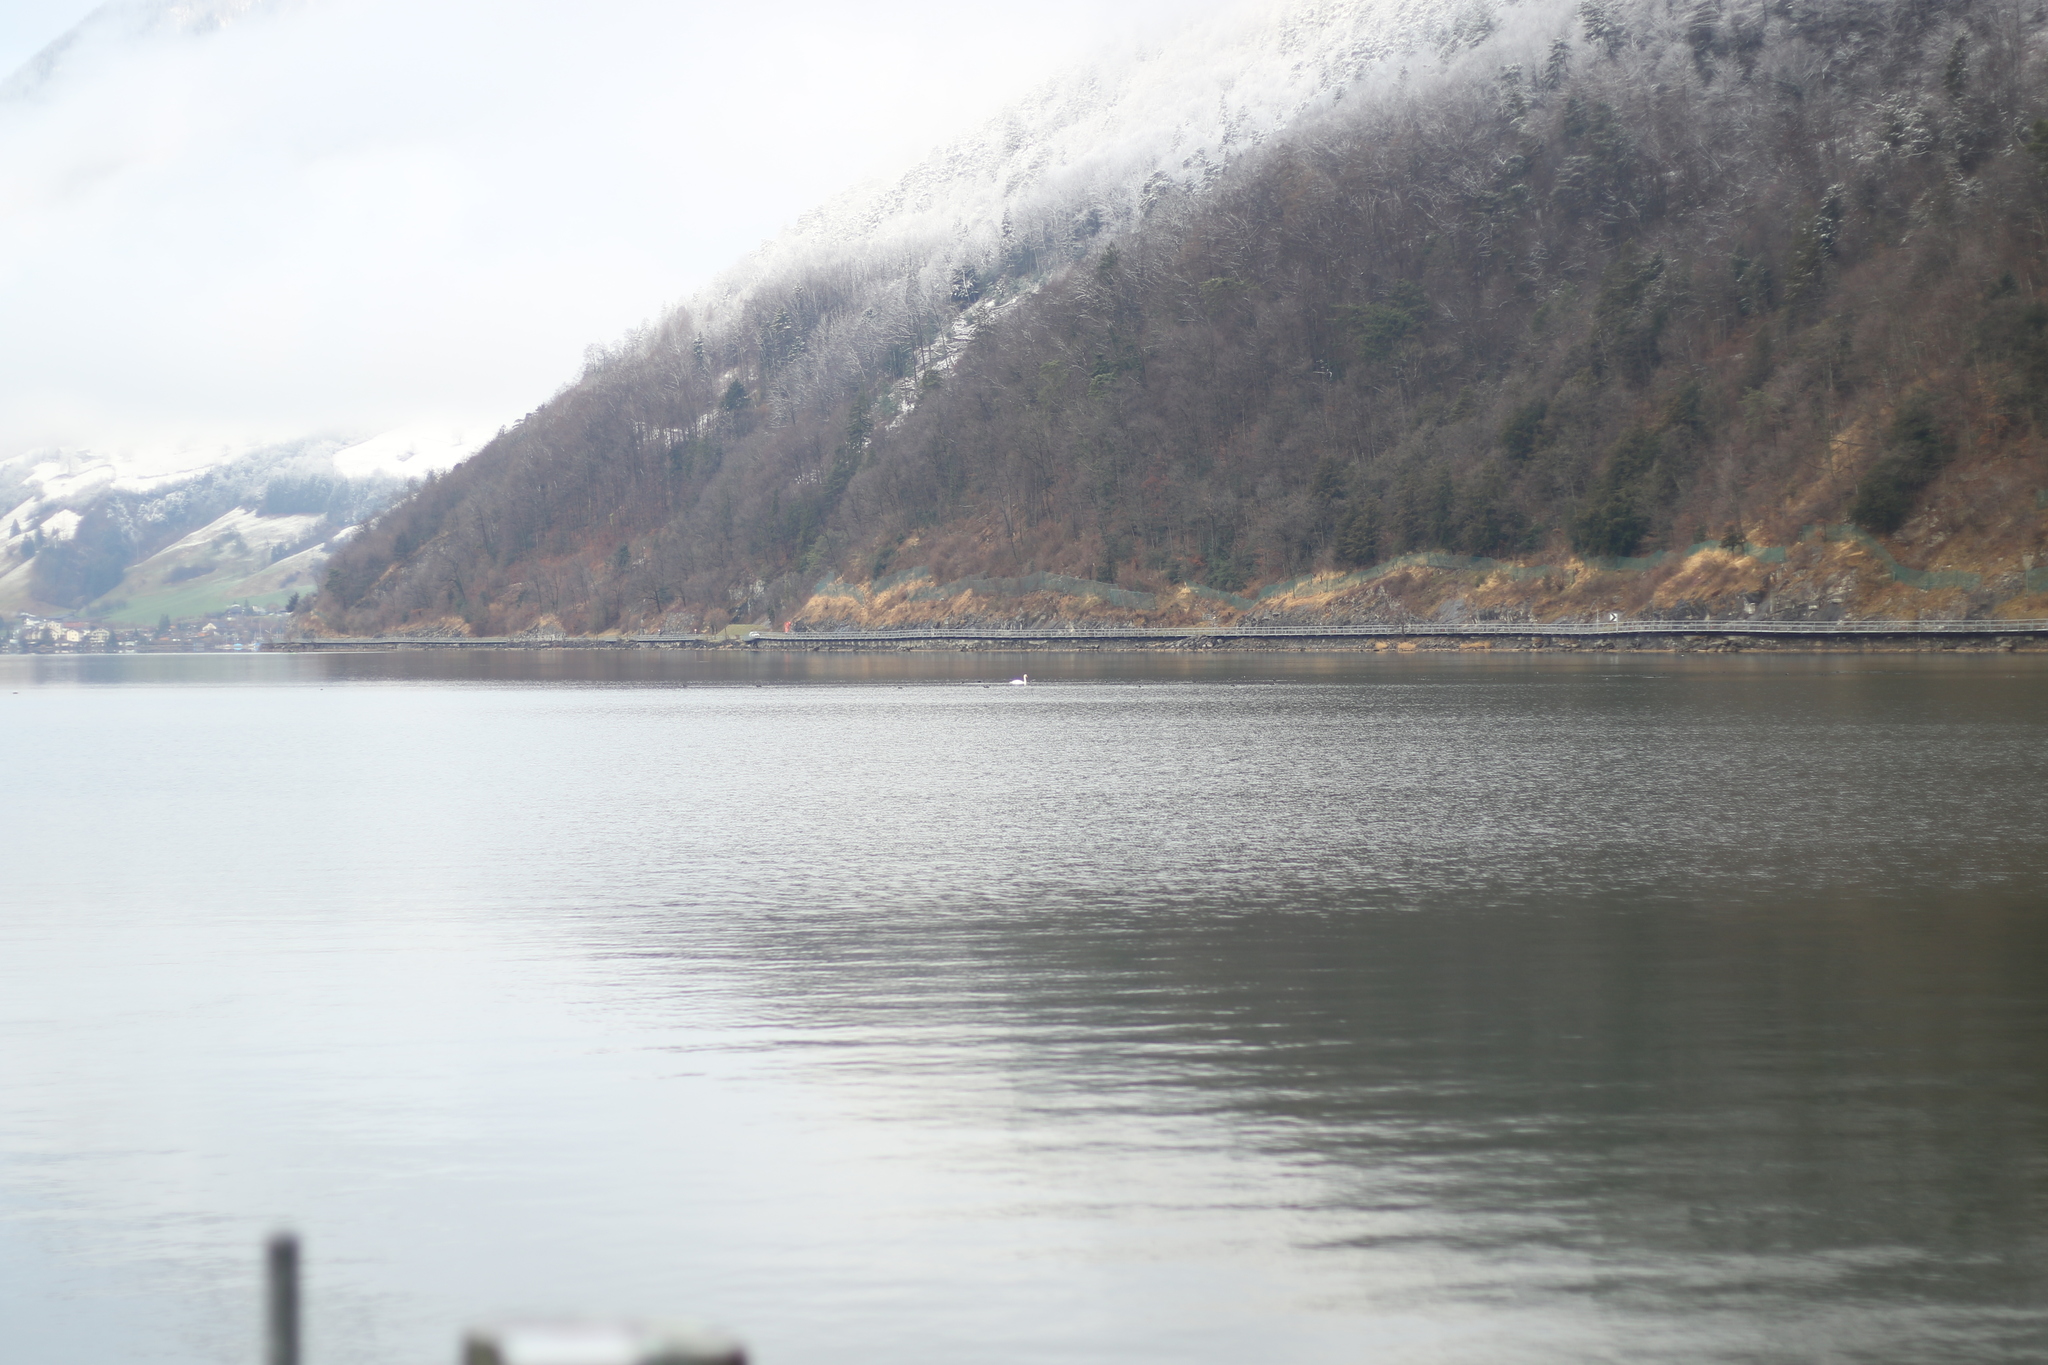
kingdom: Animalia
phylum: Chordata
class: Aves
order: Anseriformes
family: Anatidae
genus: Cygnus
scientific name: Cygnus olor
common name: Mute swan
